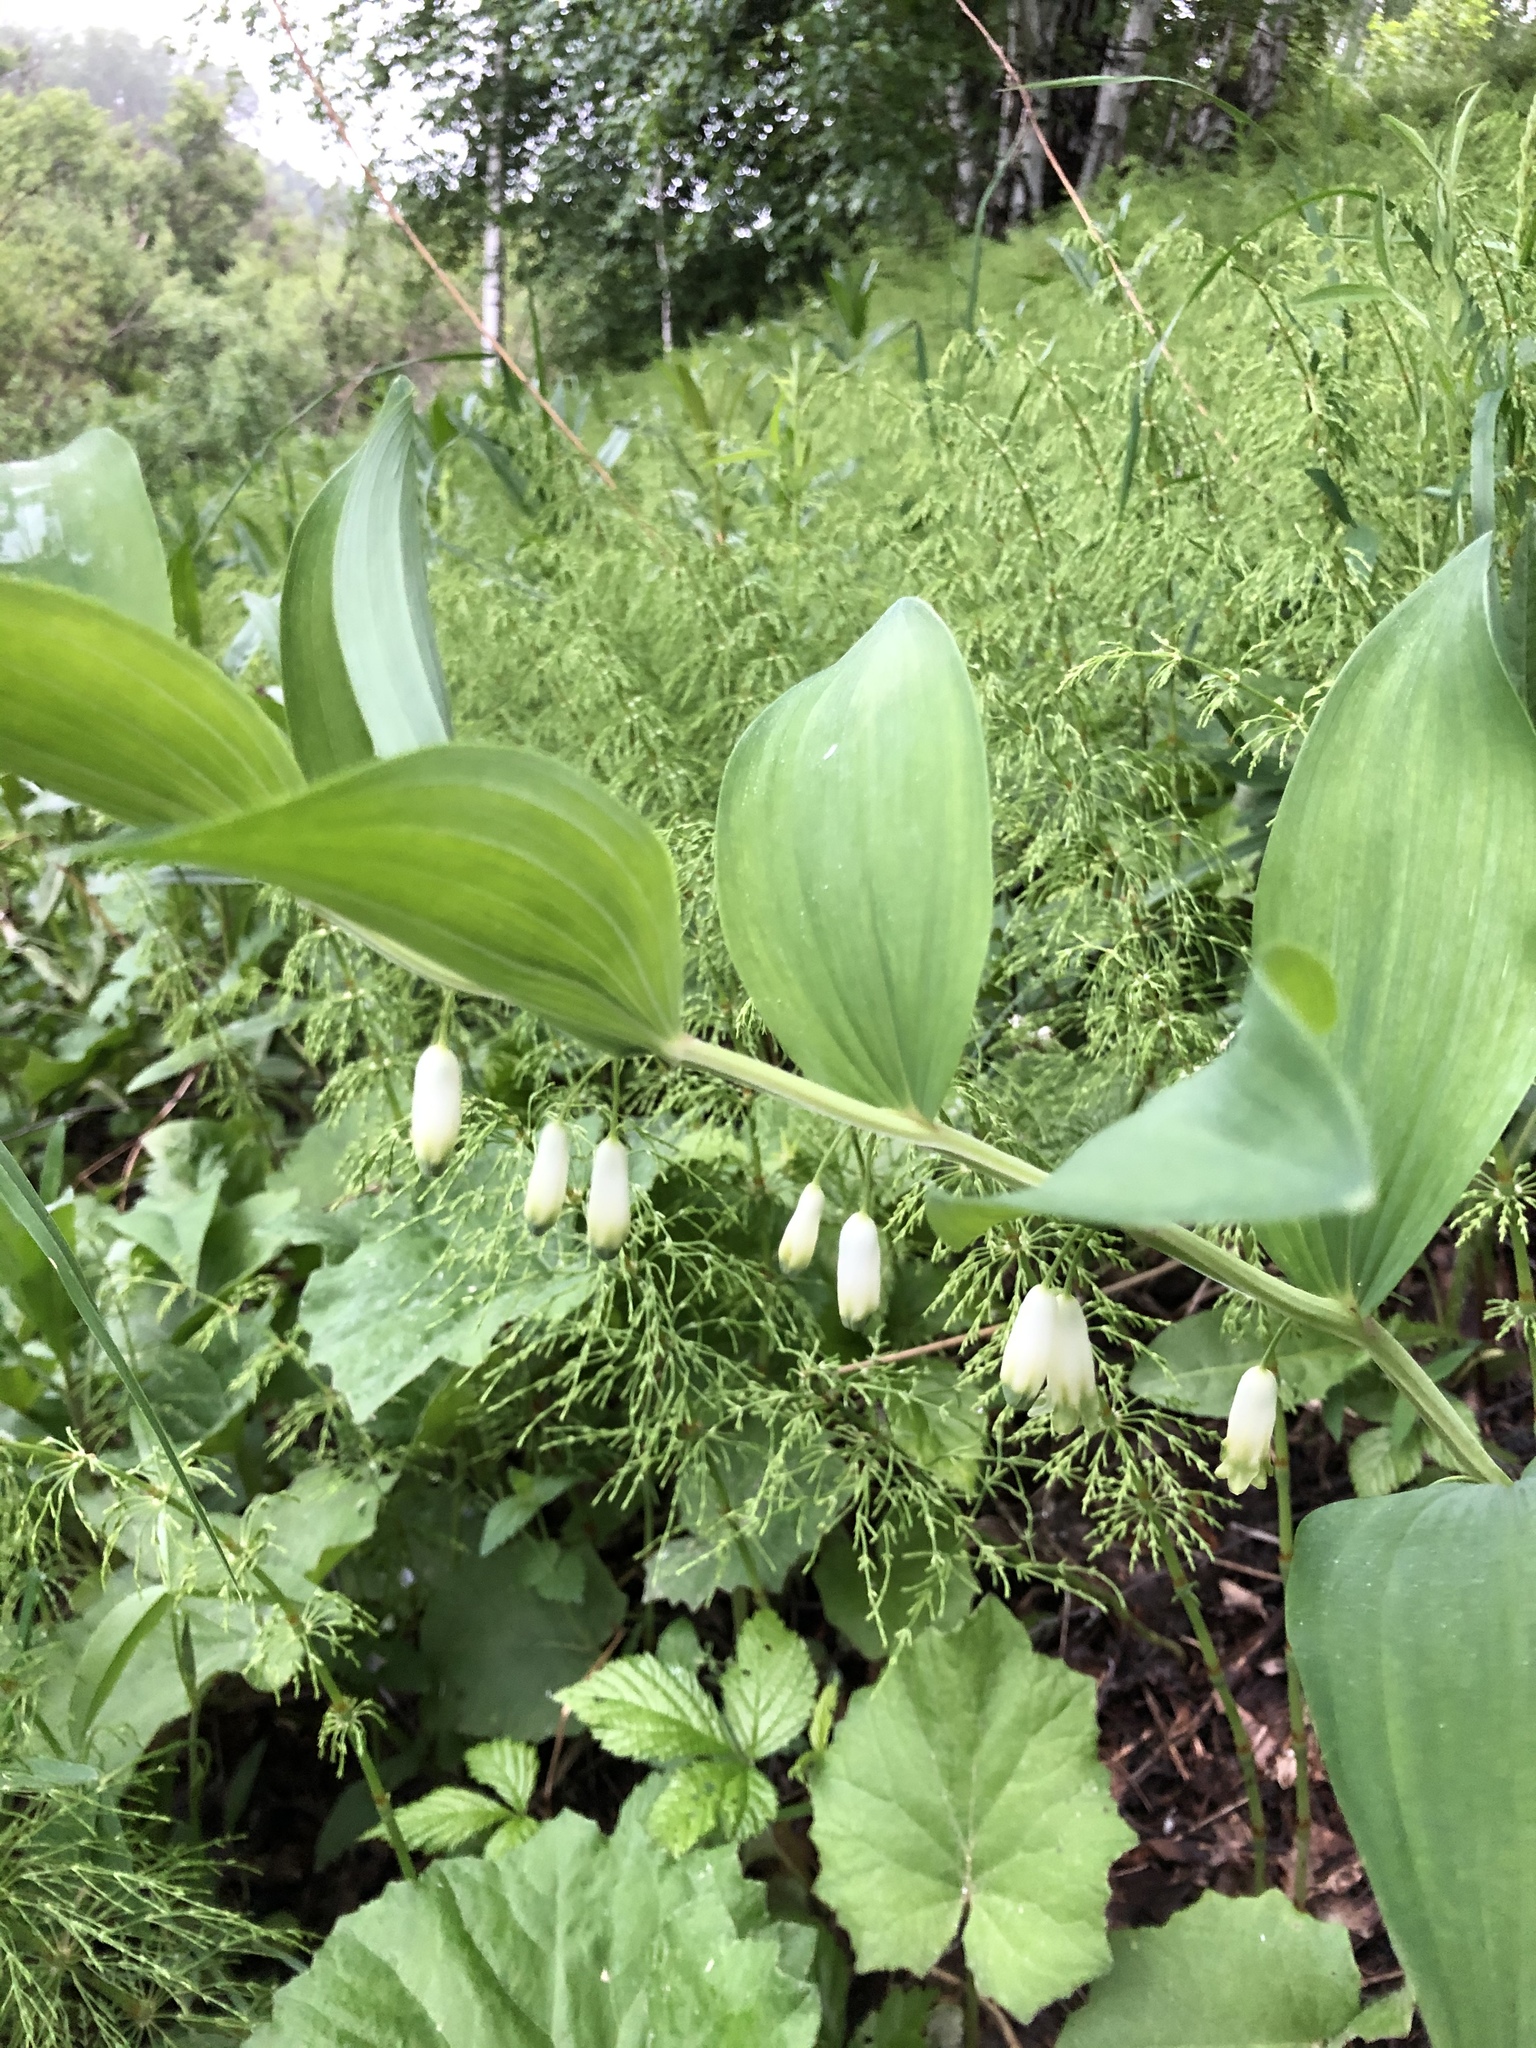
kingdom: Plantae
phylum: Tracheophyta
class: Liliopsida
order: Asparagales
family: Asparagaceae
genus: Polygonatum
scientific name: Polygonatum odoratum
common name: Angular solomon's-seal
